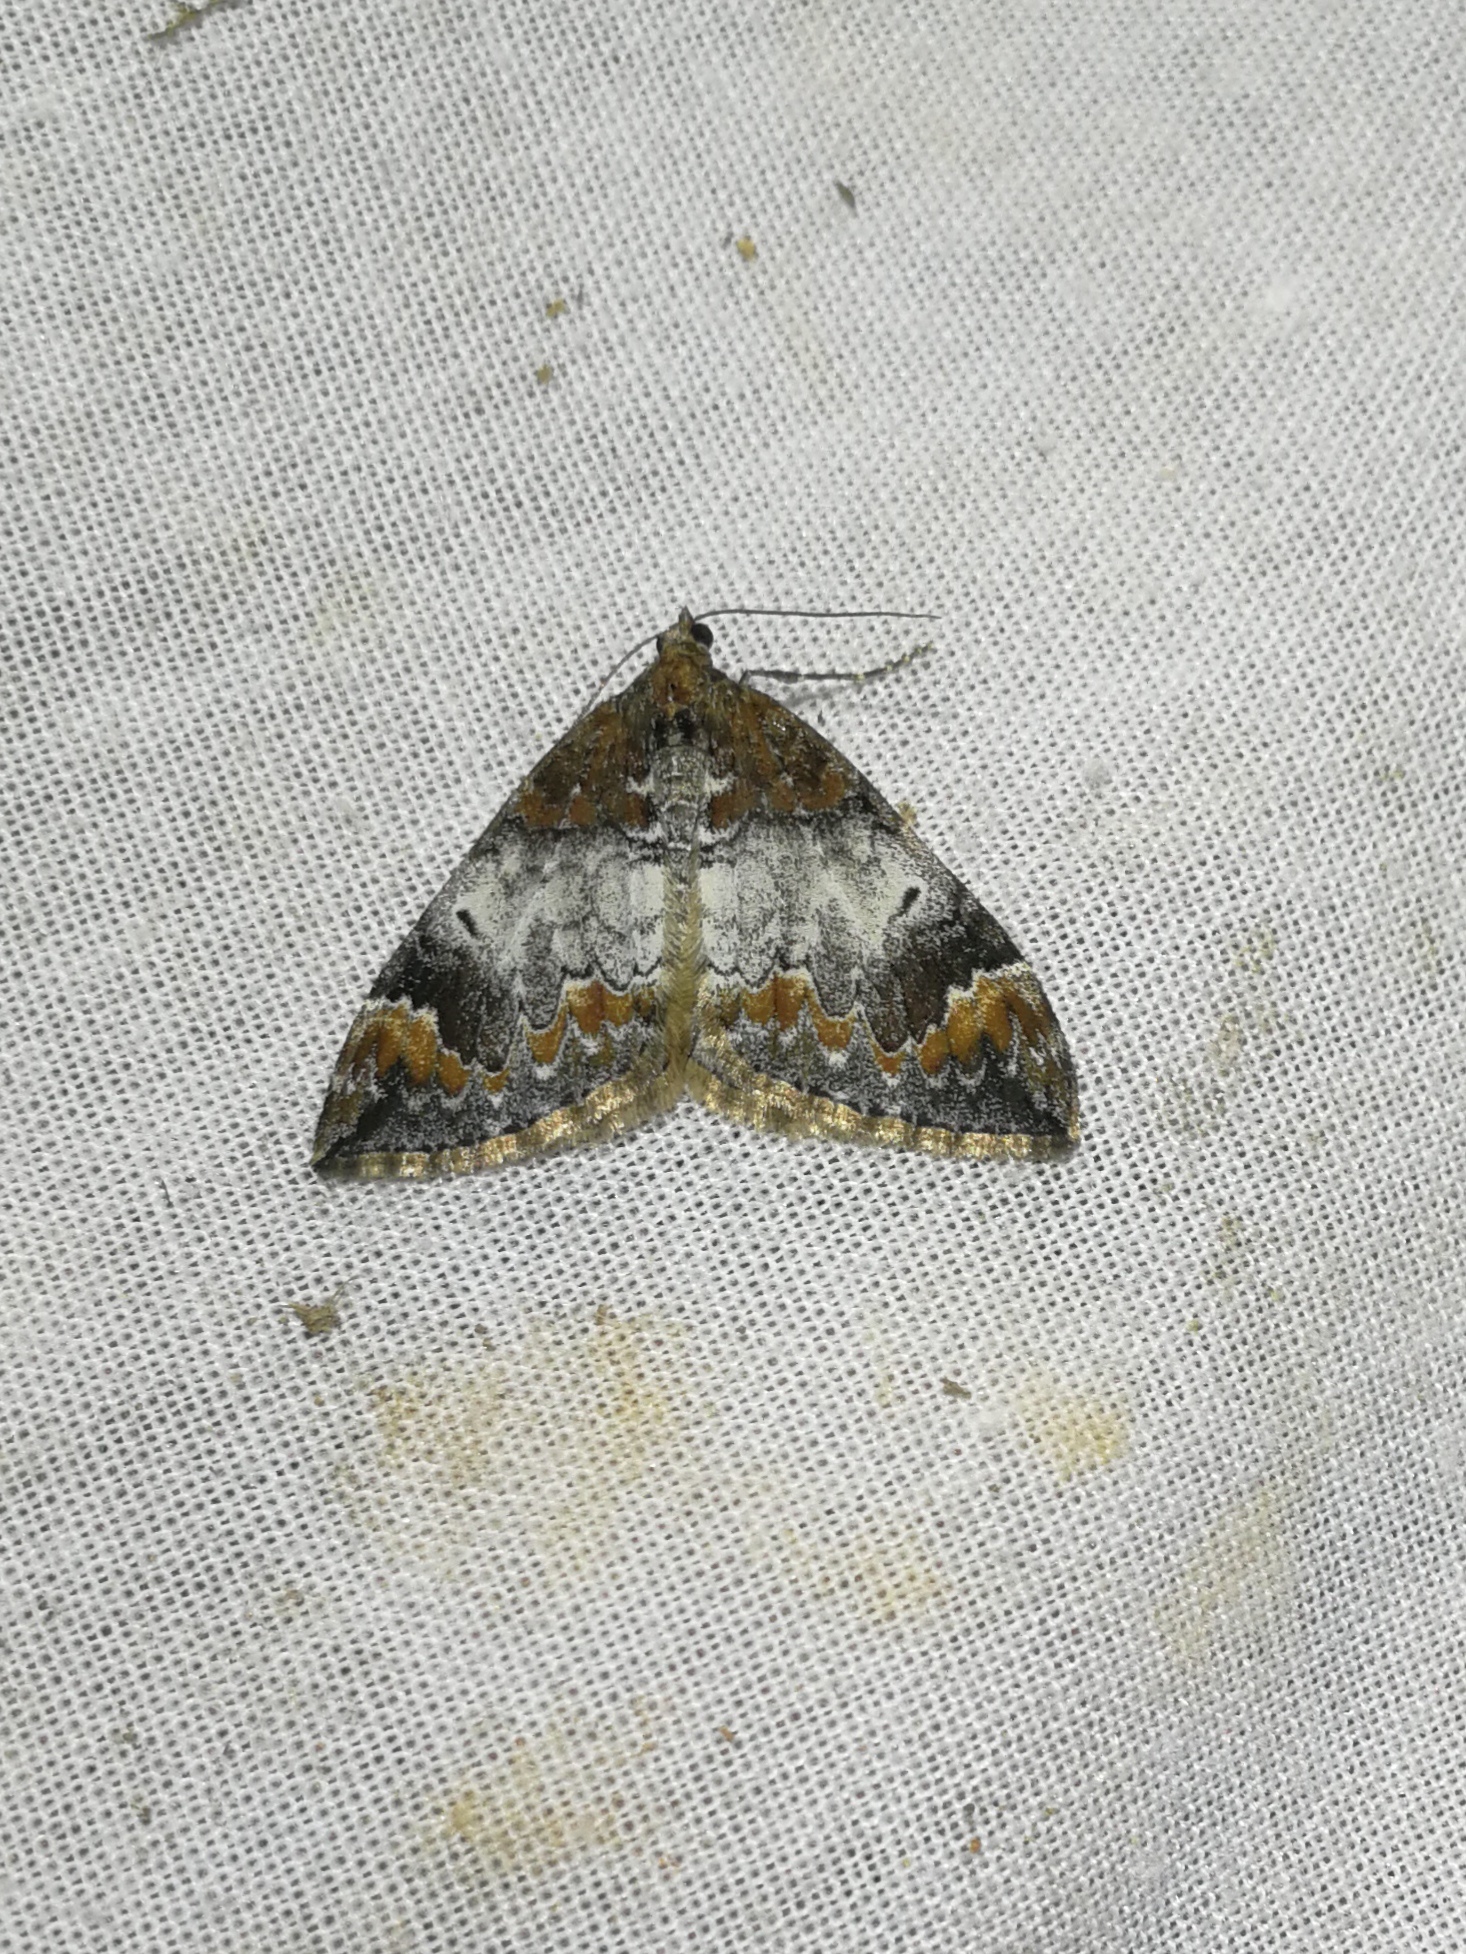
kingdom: Animalia
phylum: Arthropoda
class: Insecta
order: Lepidoptera
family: Geometridae
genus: Dysstroma
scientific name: Dysstroma truncata
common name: Common marbled carpet
